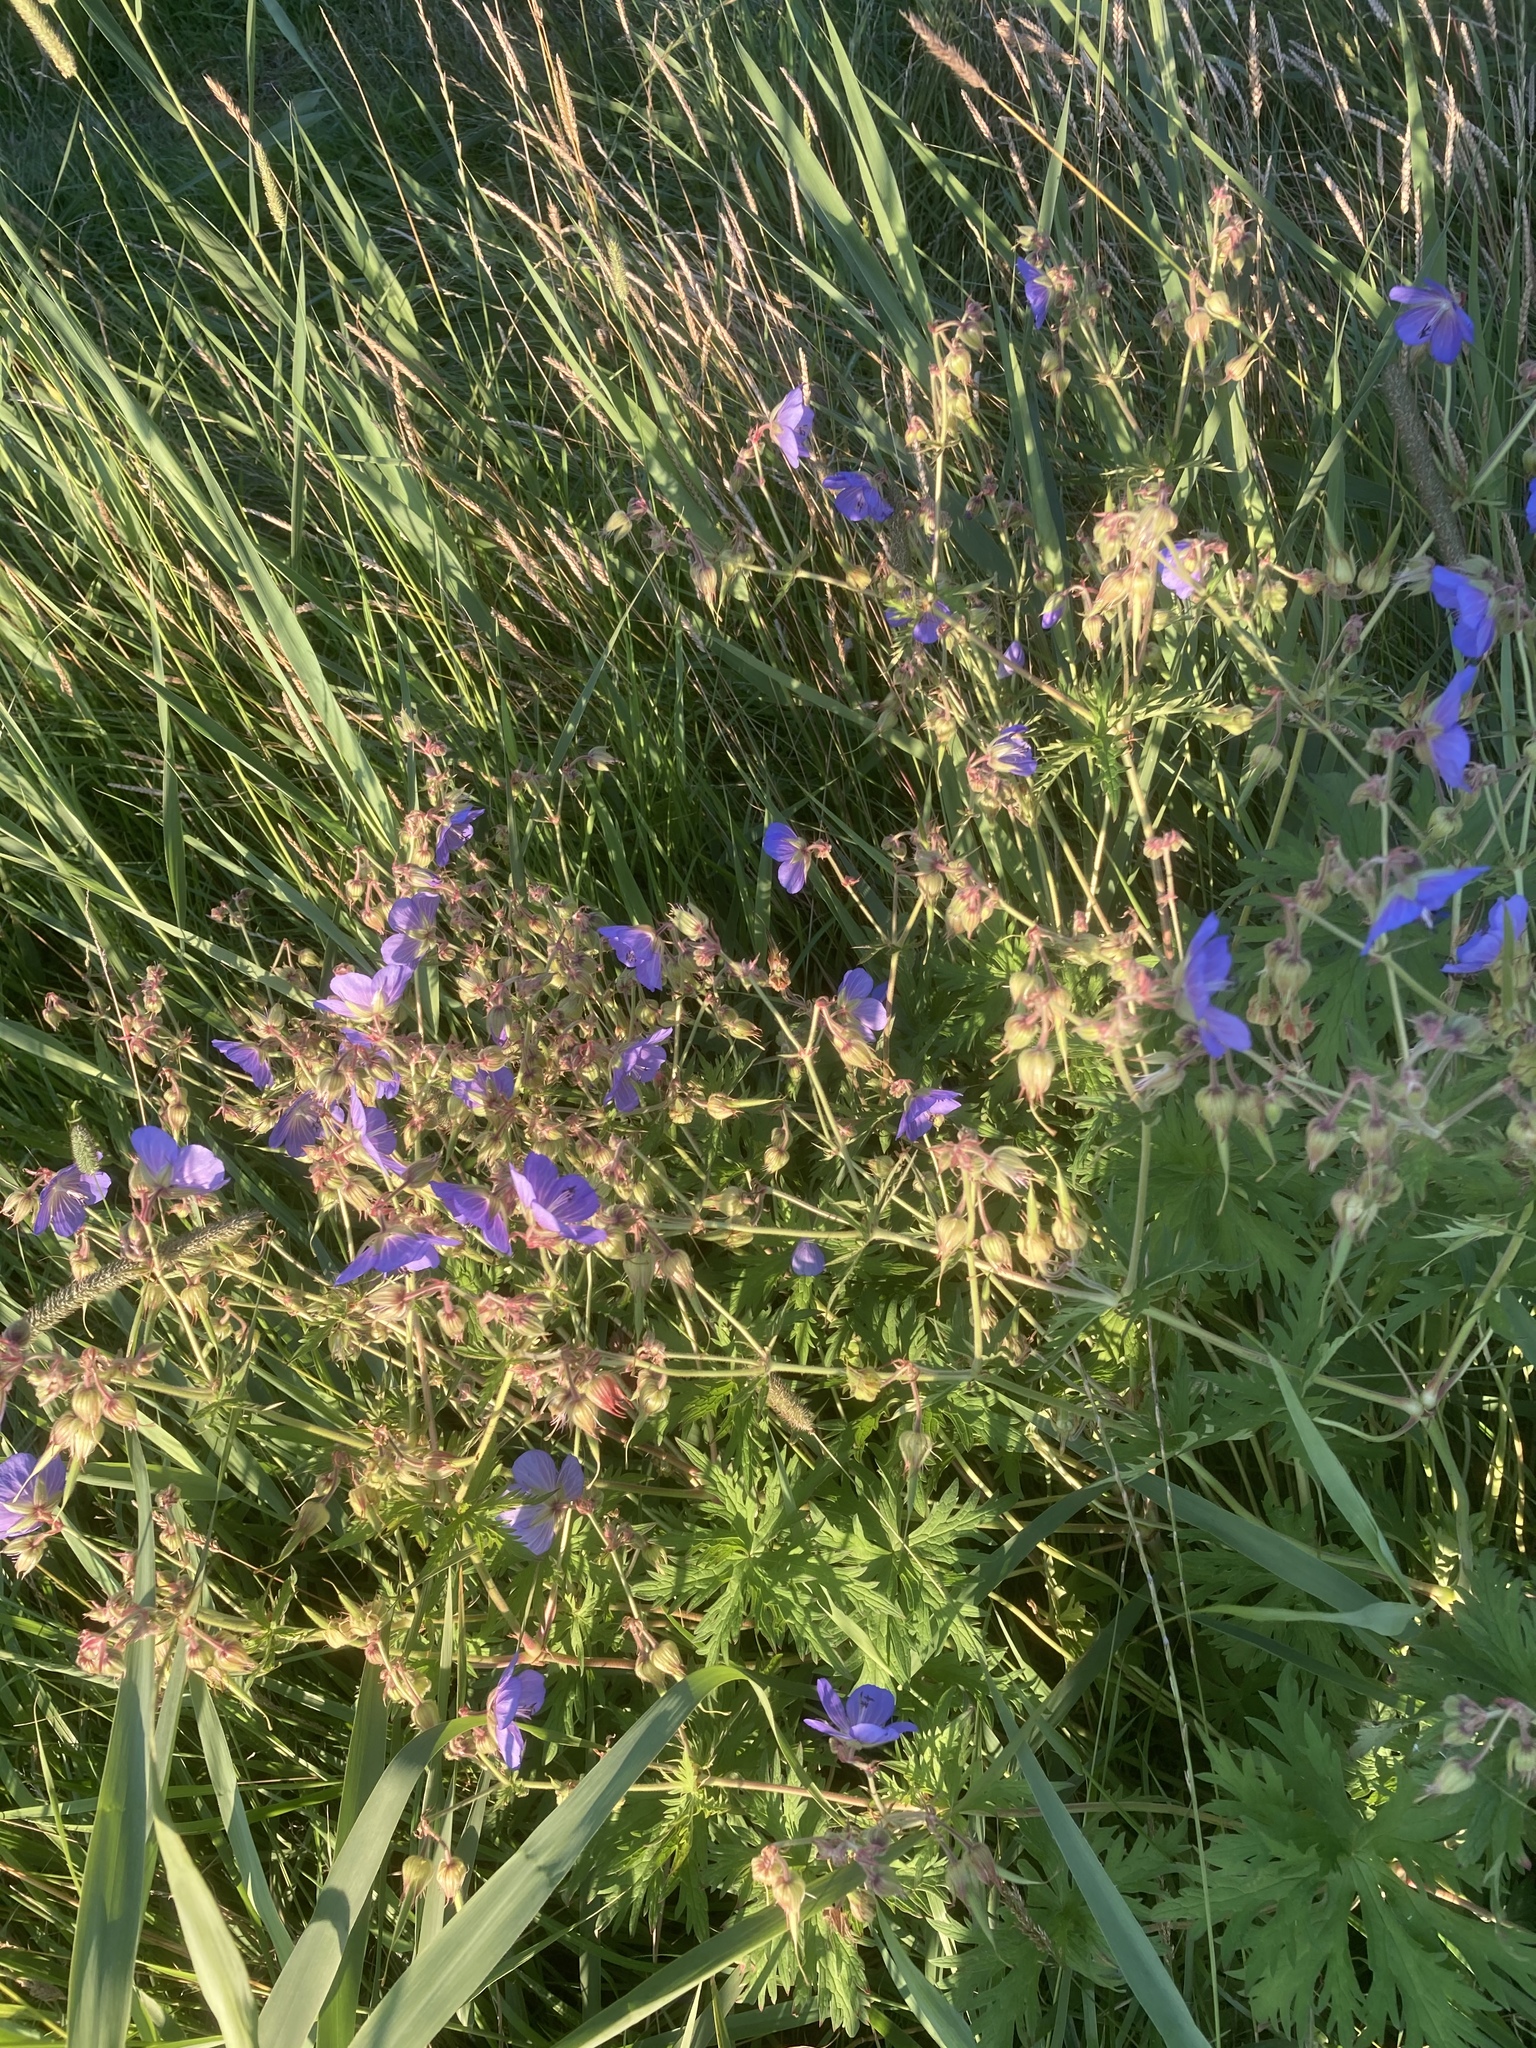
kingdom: Plantae
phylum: Tracheophyta
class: Magnoliopsida
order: Geraniales
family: Geraniaceae
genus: Geranium
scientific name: Geranium pratense
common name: Meadow crane's-bill
